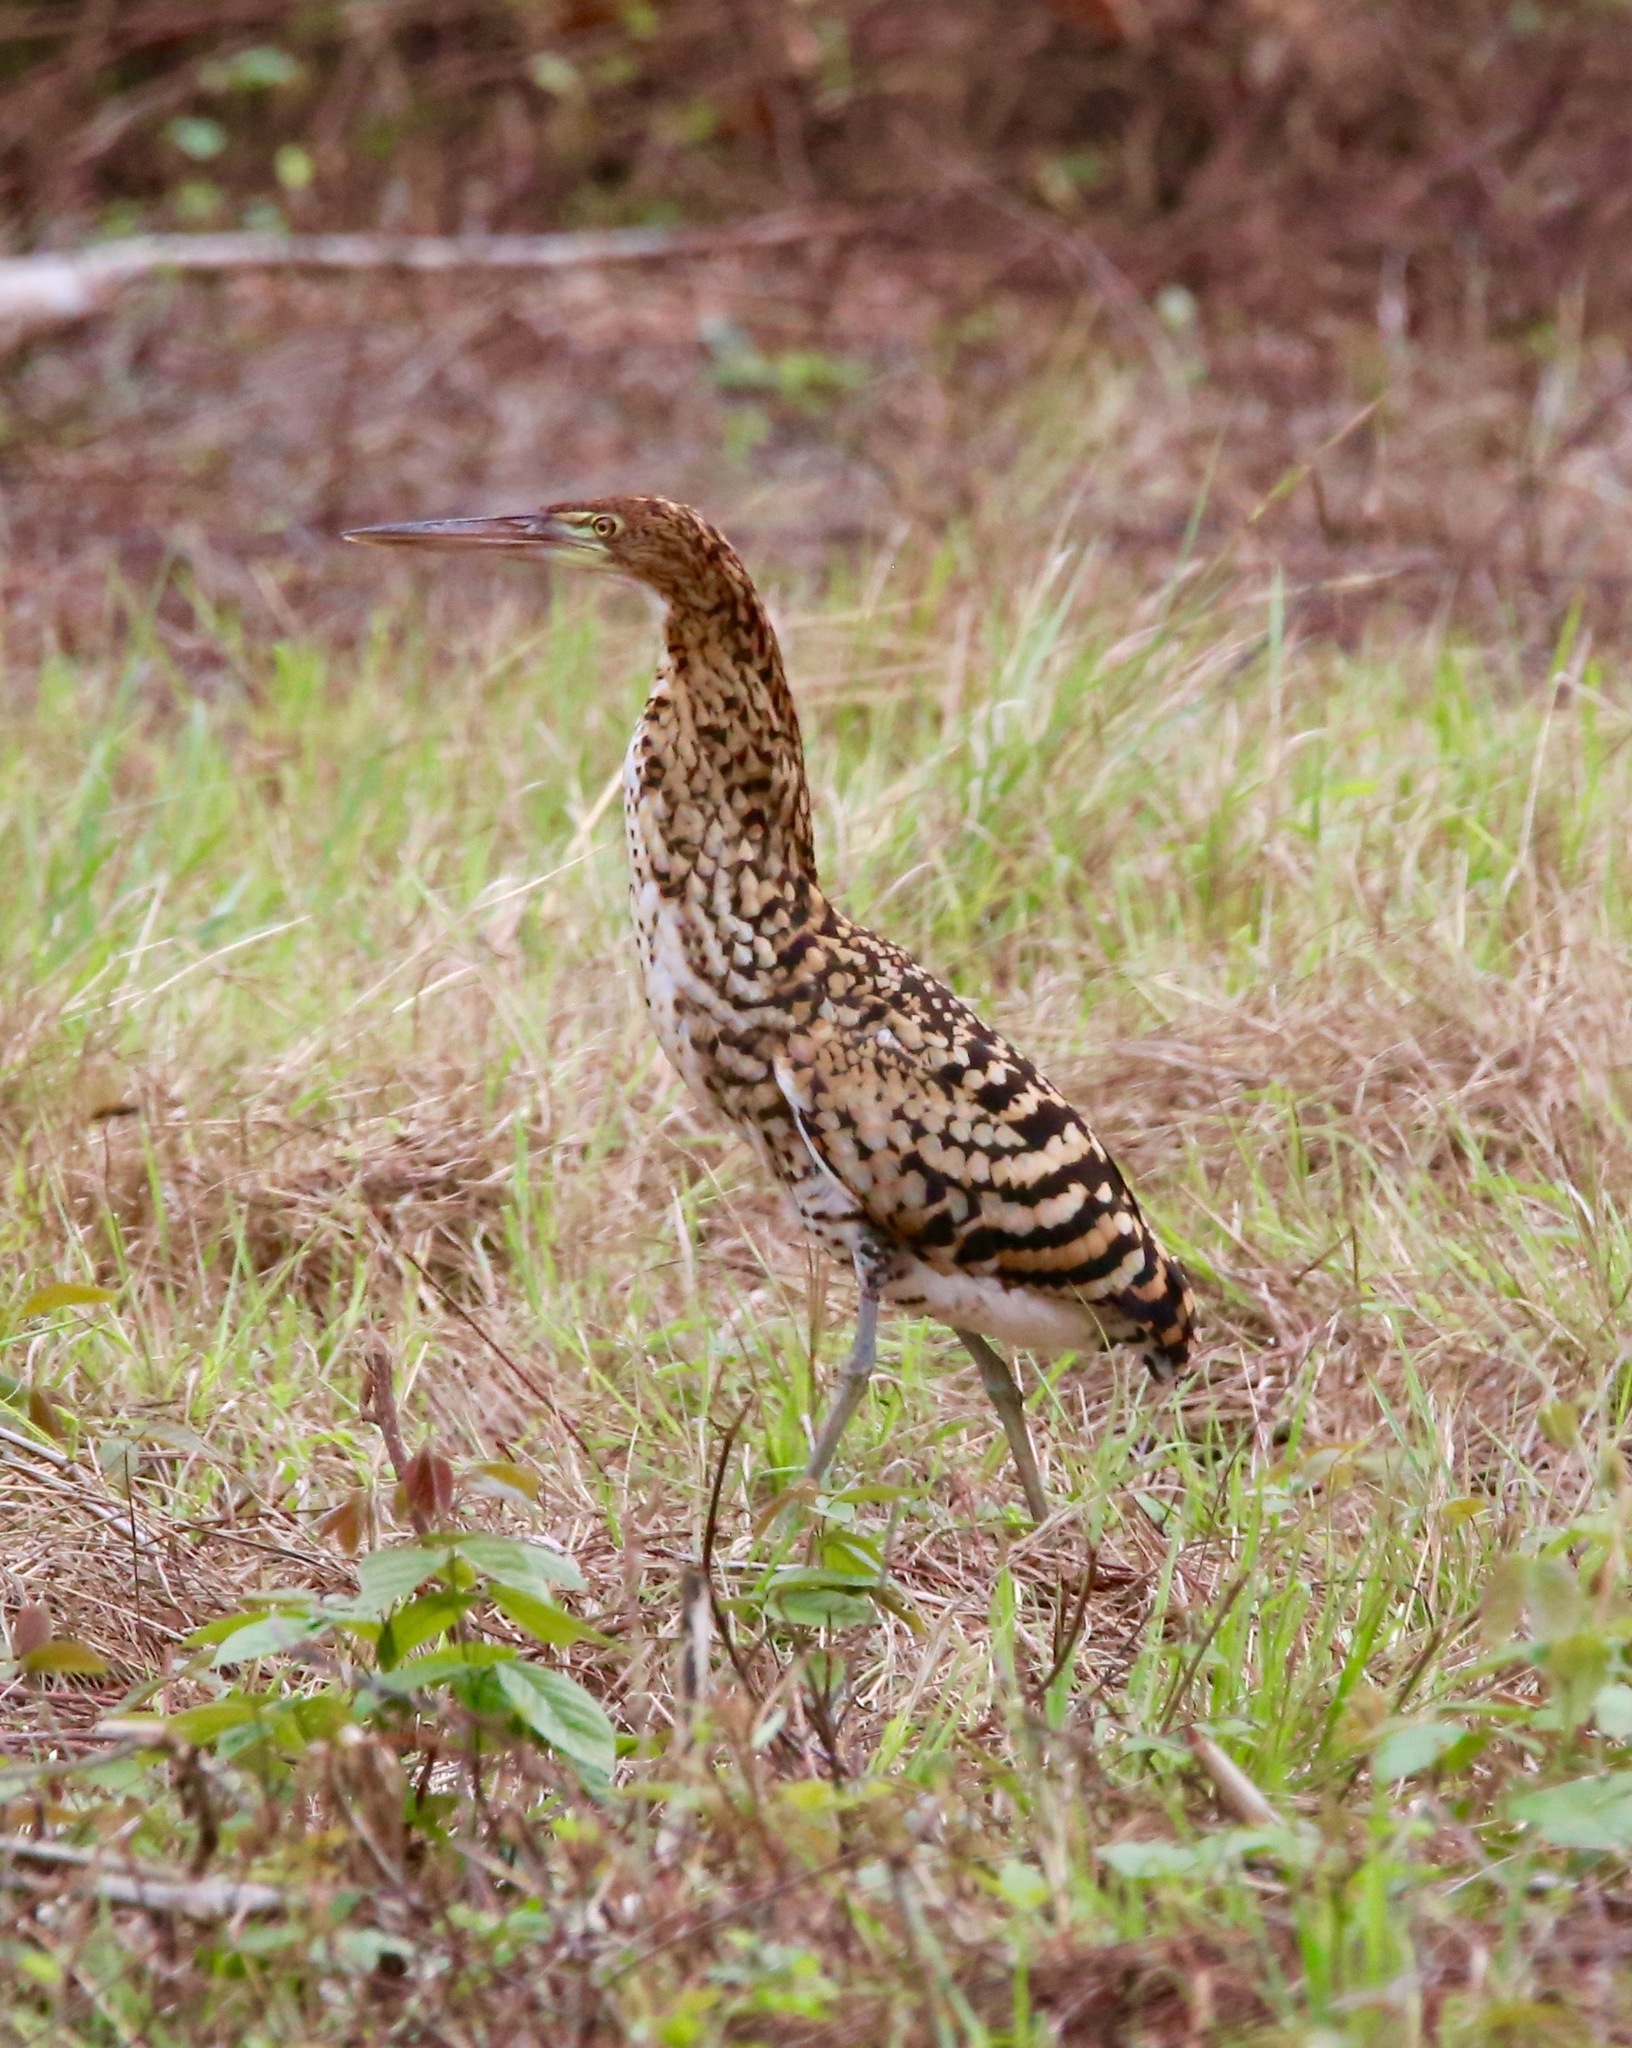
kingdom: Animalia
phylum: Chordata
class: Aves
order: Pelecaniformes
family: Ardeidae
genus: Tigrisoma
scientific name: Tigrisoma lineatum
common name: Rufescent tiger-heron
